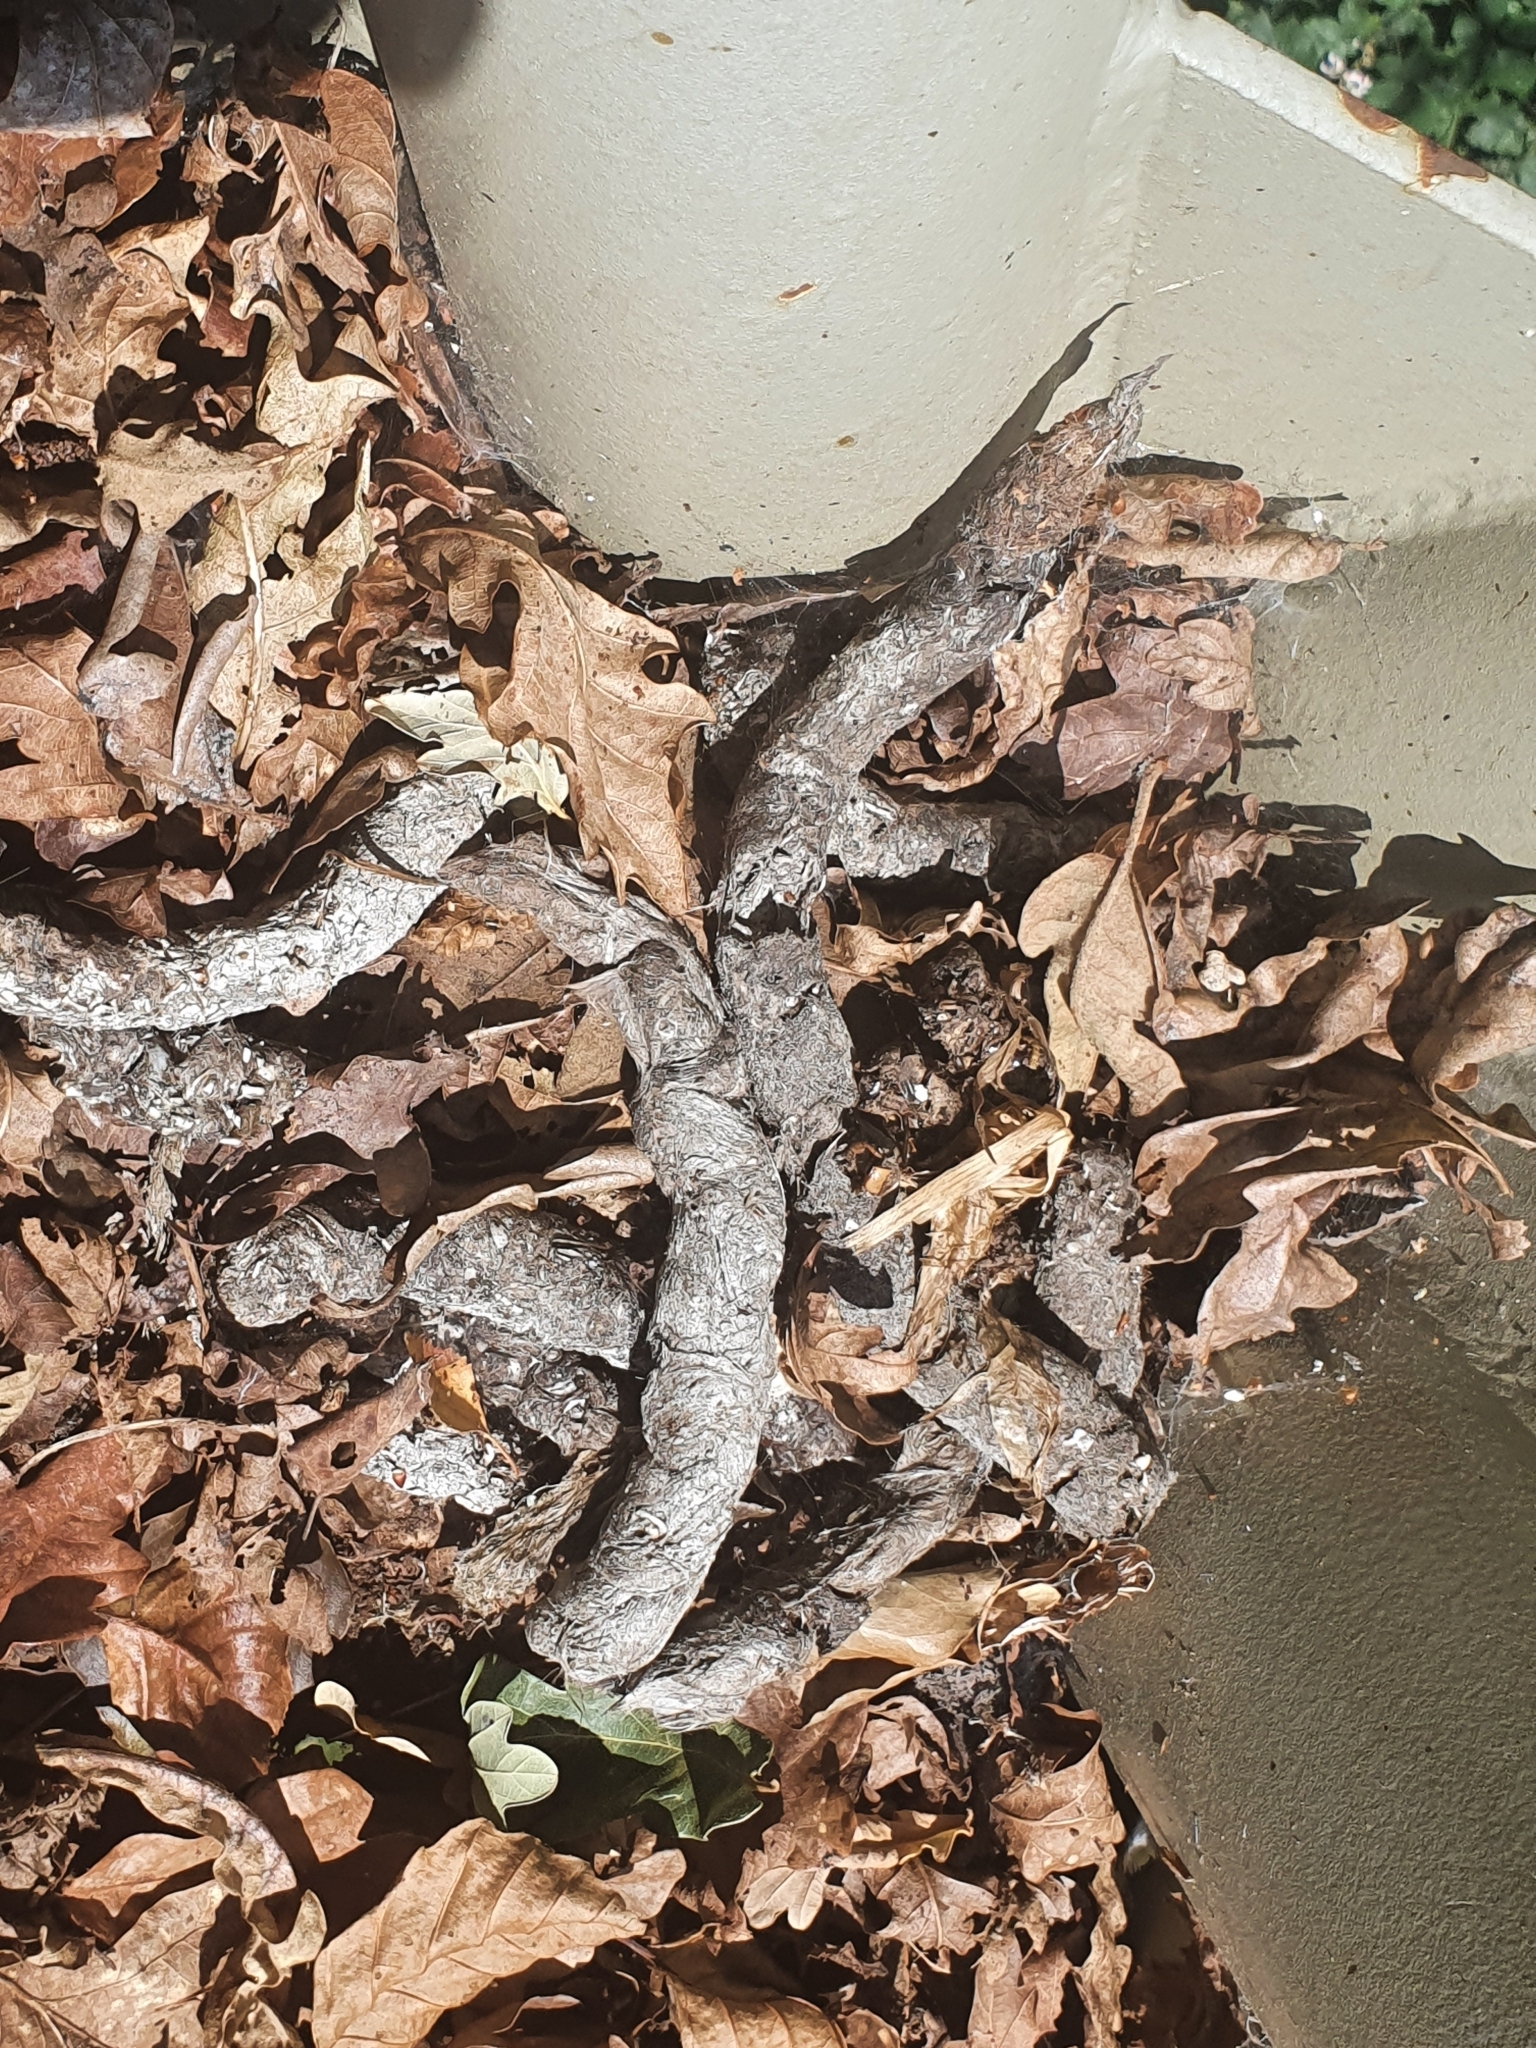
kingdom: Animalia
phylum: Chordata
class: Mammalia
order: Carnivora
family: Viverridae
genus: Genetta
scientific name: Genetta genetta
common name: Common genet
